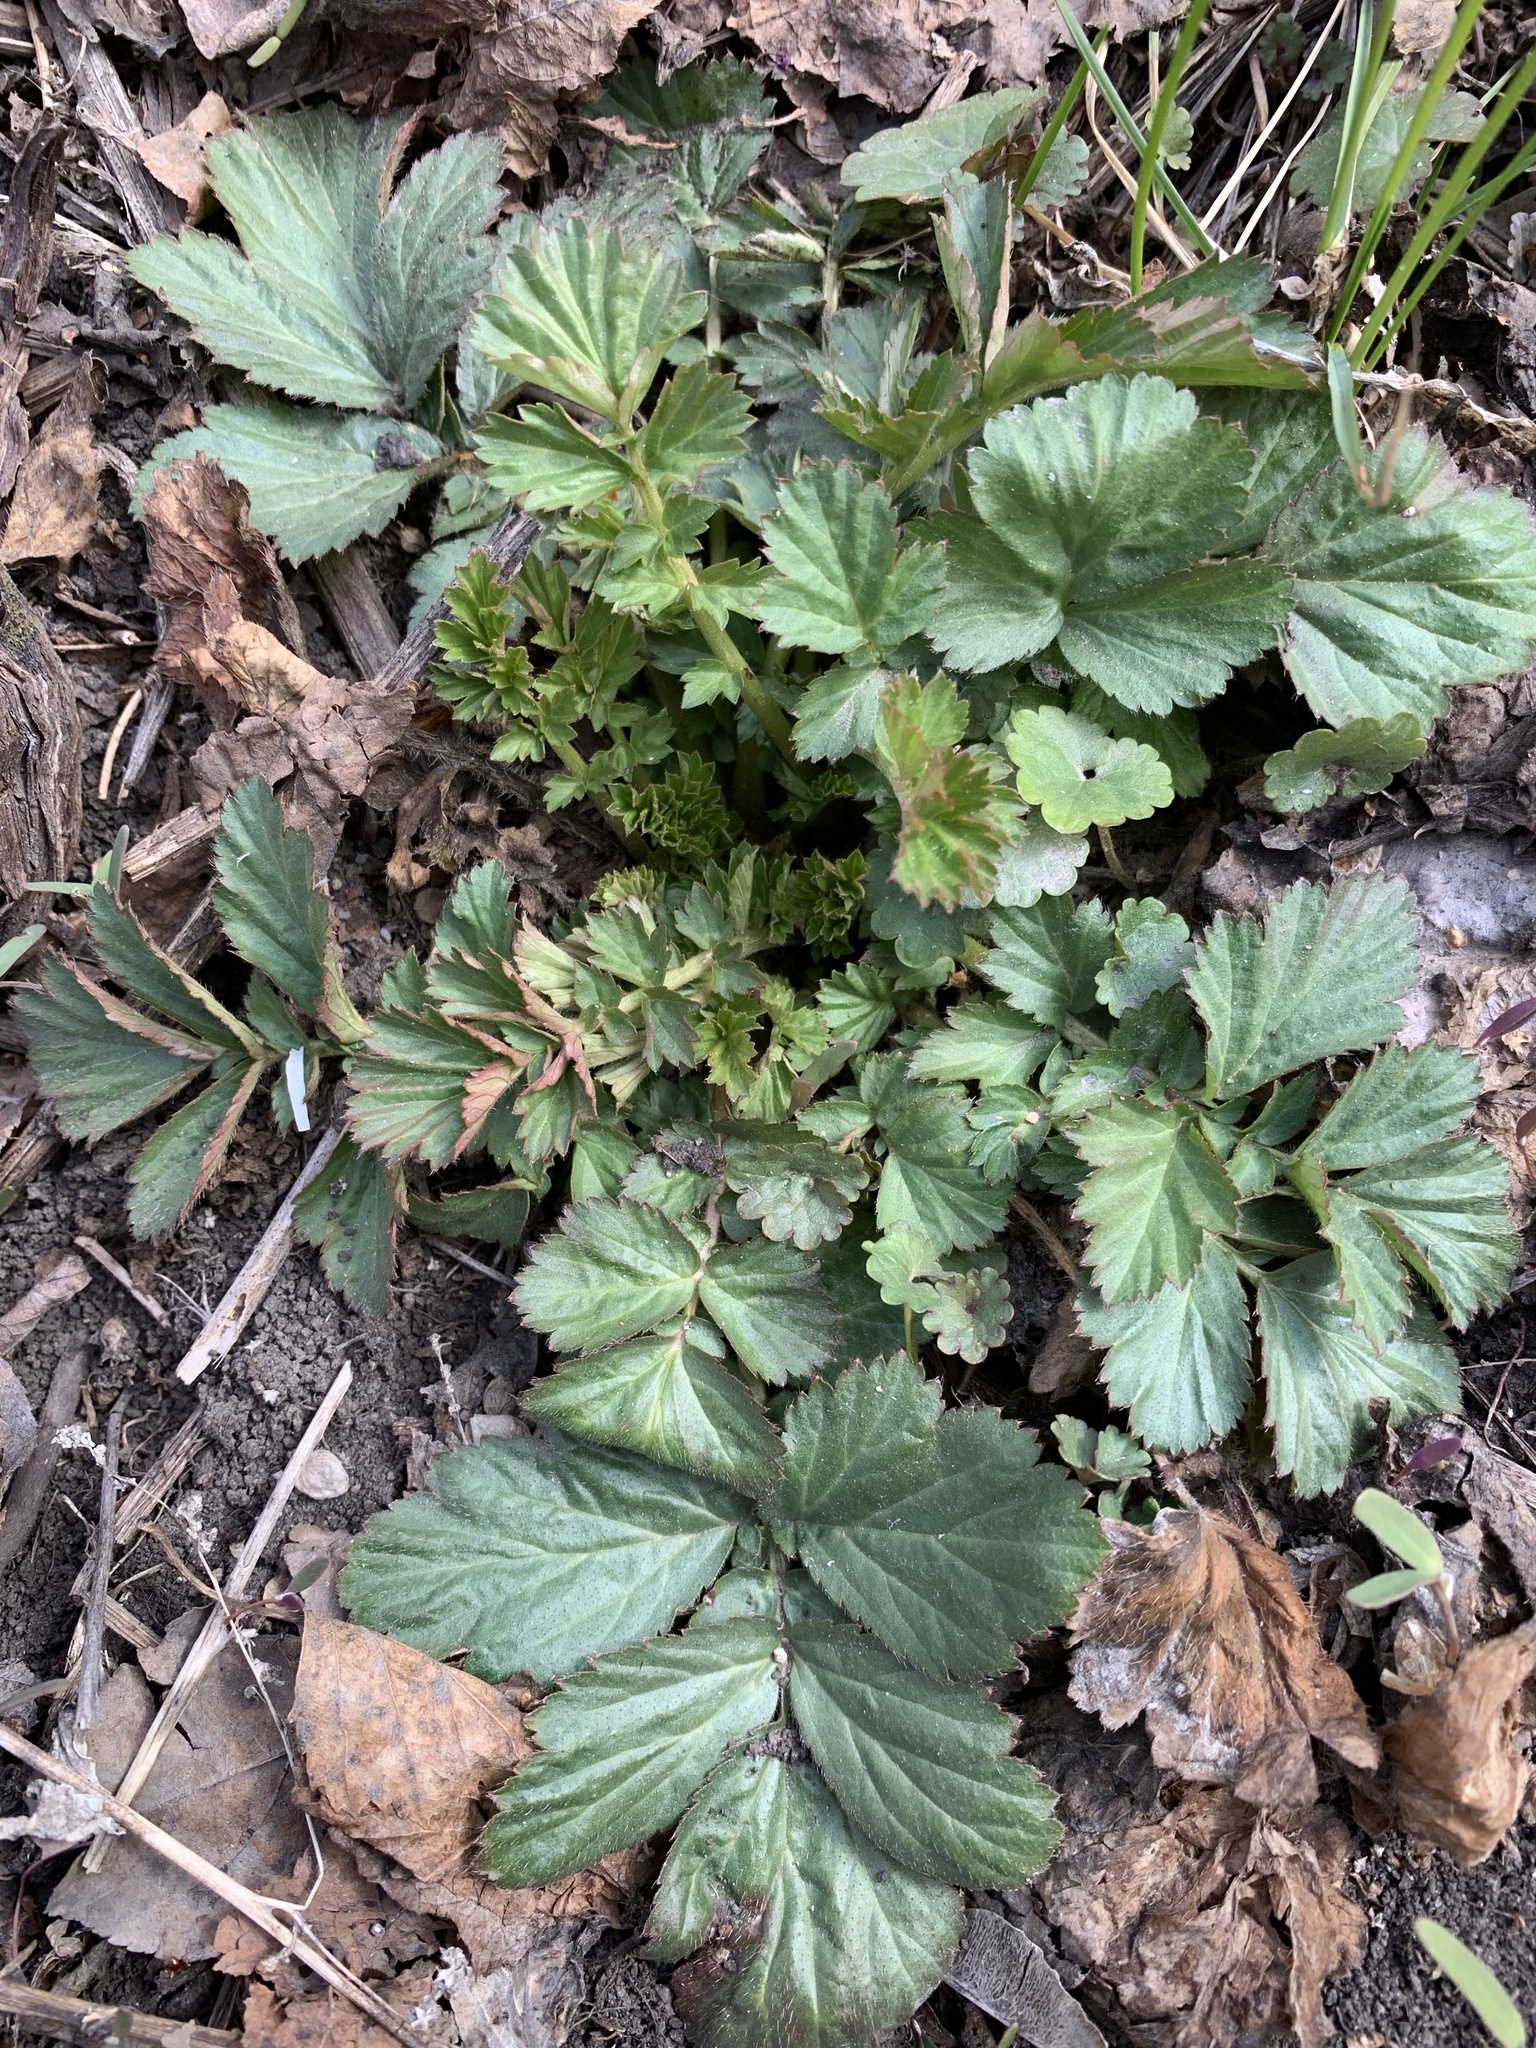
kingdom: Plantae
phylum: Tracheophyta
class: Magnoliopsida
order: Rosales
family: Rosaceae
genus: Geum
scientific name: Geum aleppicum
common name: Yellow avens
